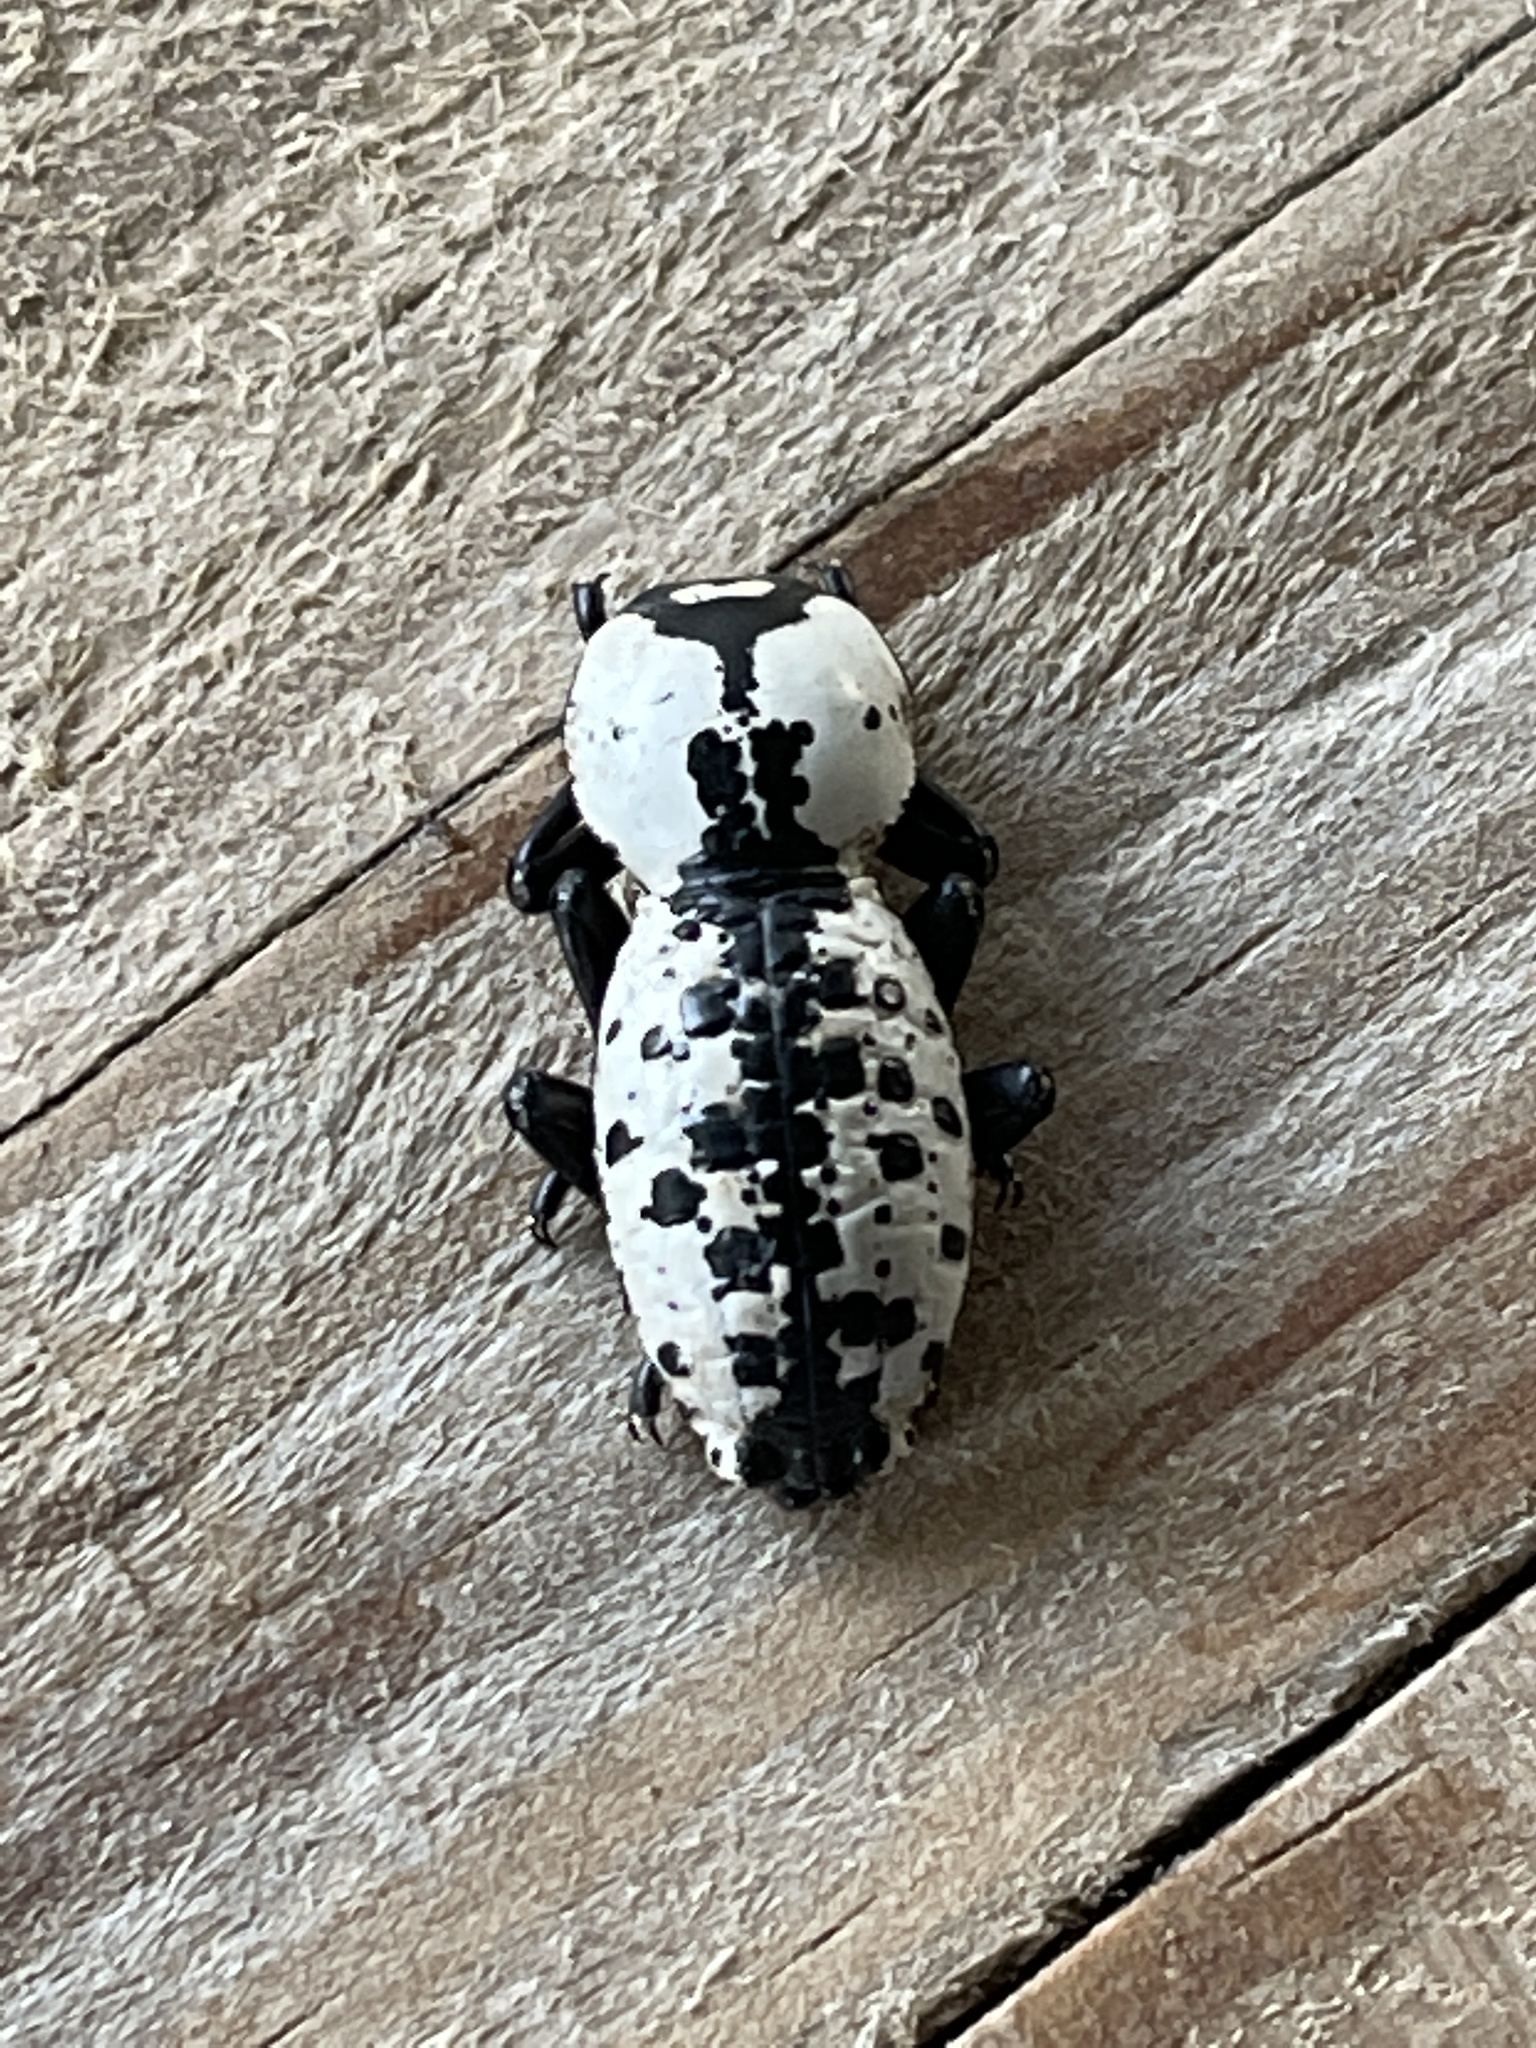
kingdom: Animalia
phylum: Arthropoda
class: Insecta
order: Coleoptera
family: Zopheridae
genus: Zopherus
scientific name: Zopherus nodulosus
